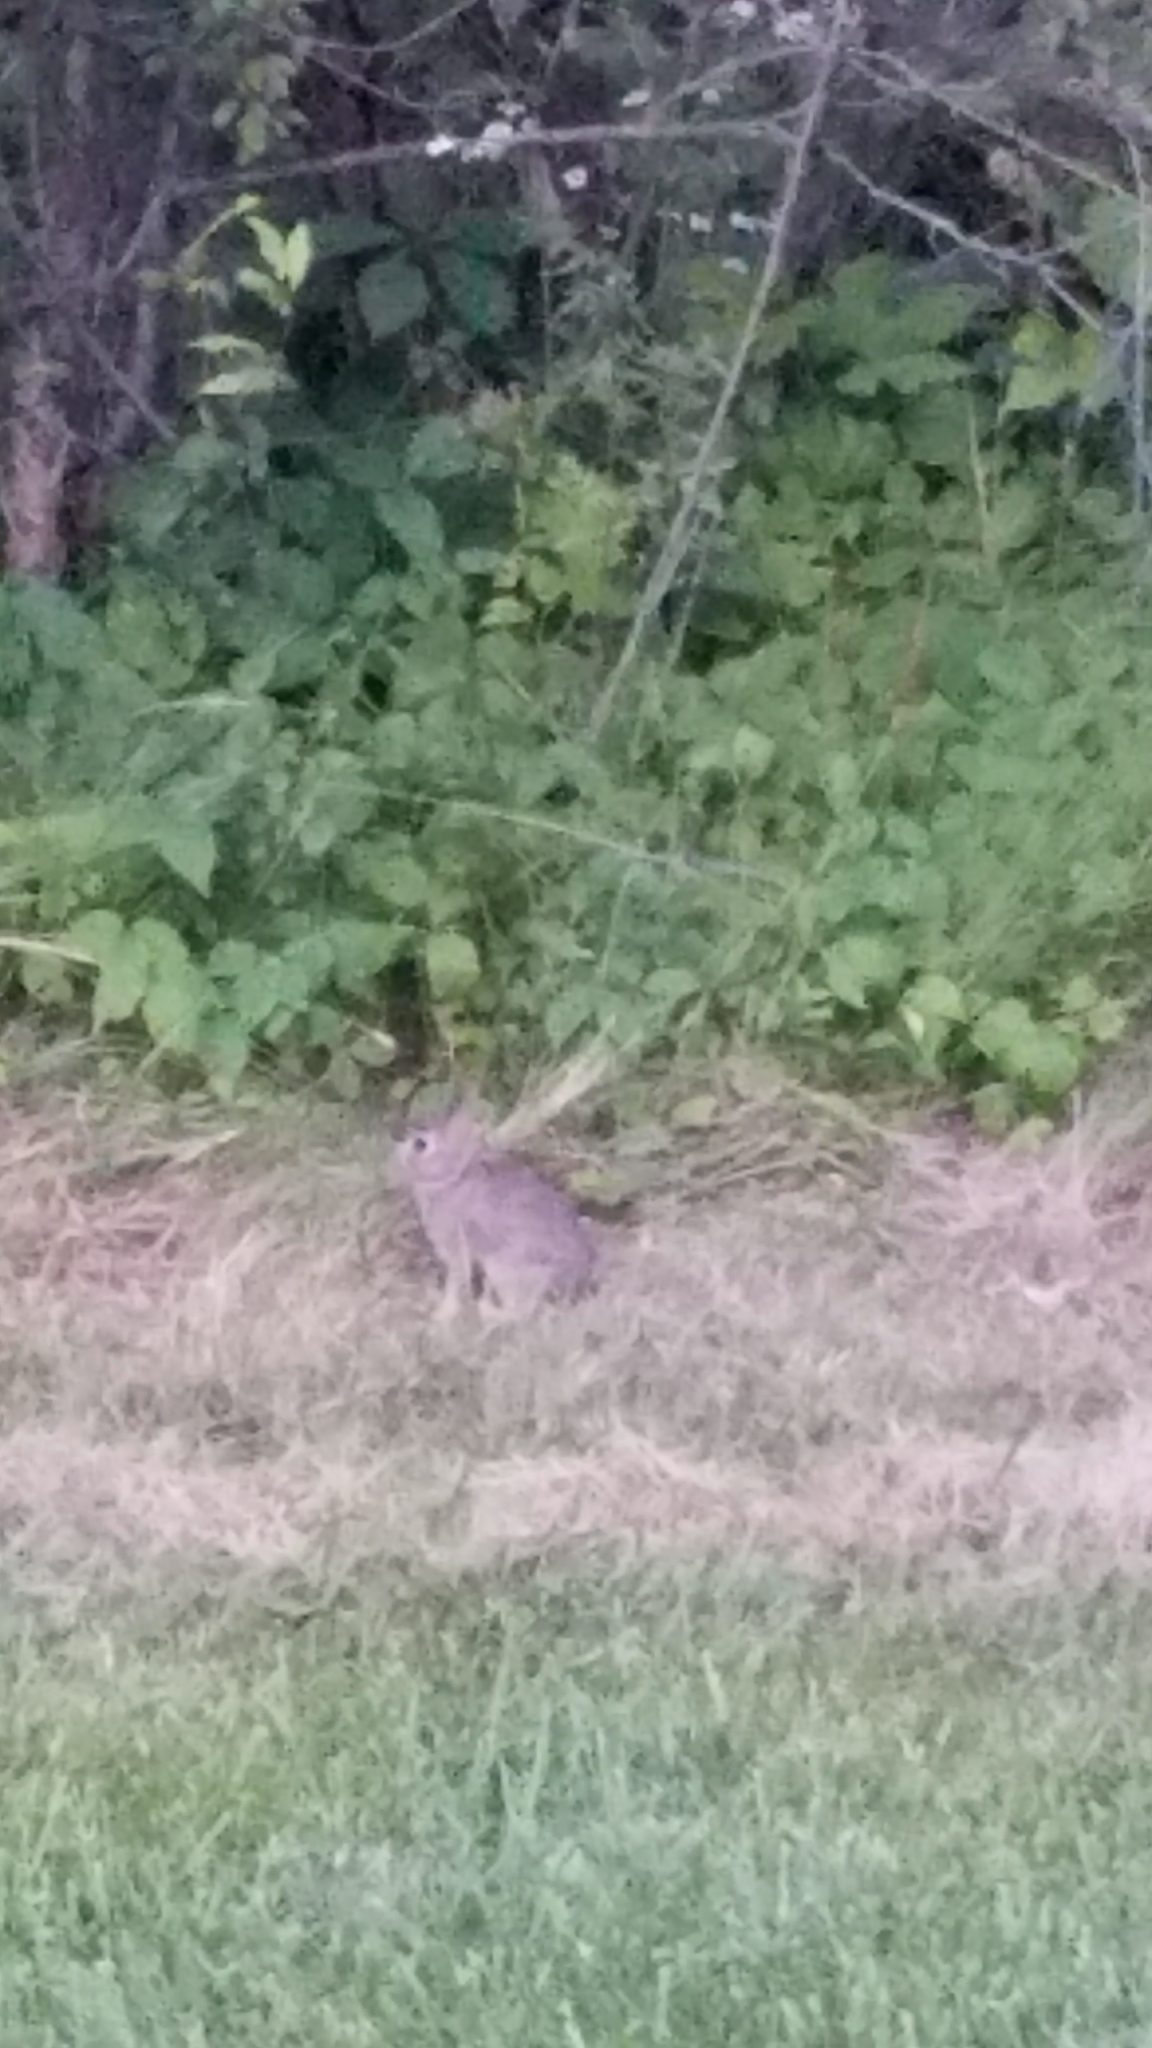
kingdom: Animalia
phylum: Chordata
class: Mammalia
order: Lagomorpha
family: Leporidae
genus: Sylvilagus
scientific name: Sylvilagus floridanus
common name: Eastern cottontail
